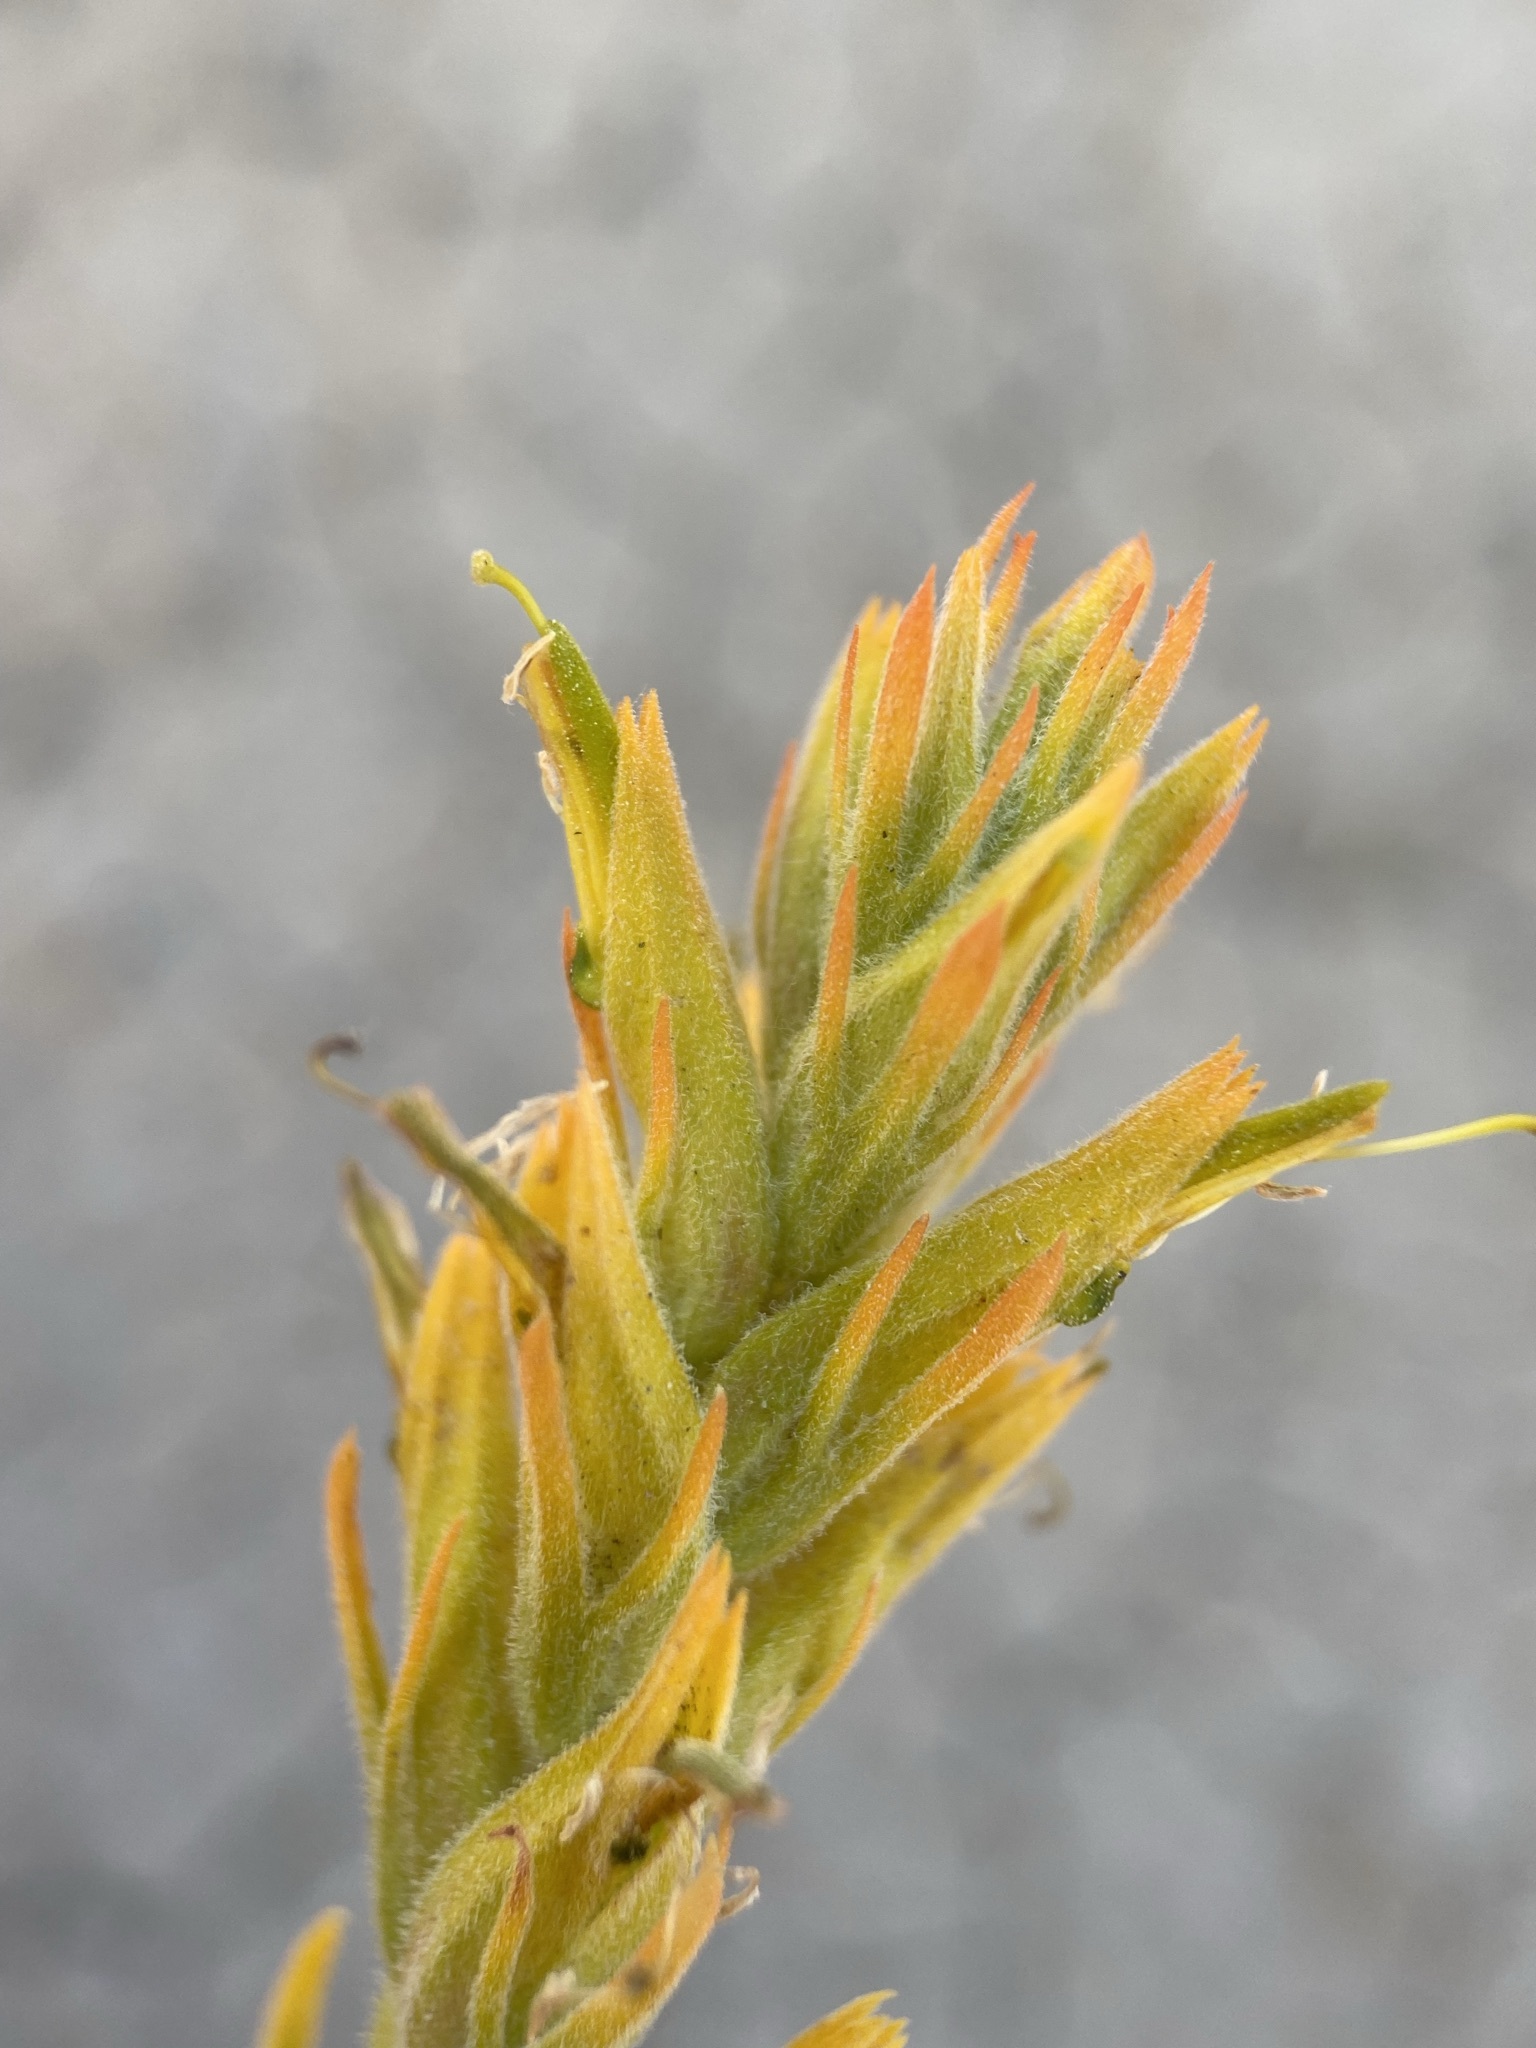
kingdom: Plantae
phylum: Tracheophyta
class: Magnoliopsida
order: Lamiales
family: Orobanchaceae
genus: Castilleja
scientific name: Castilleja flava
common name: Yellow paintbrush
